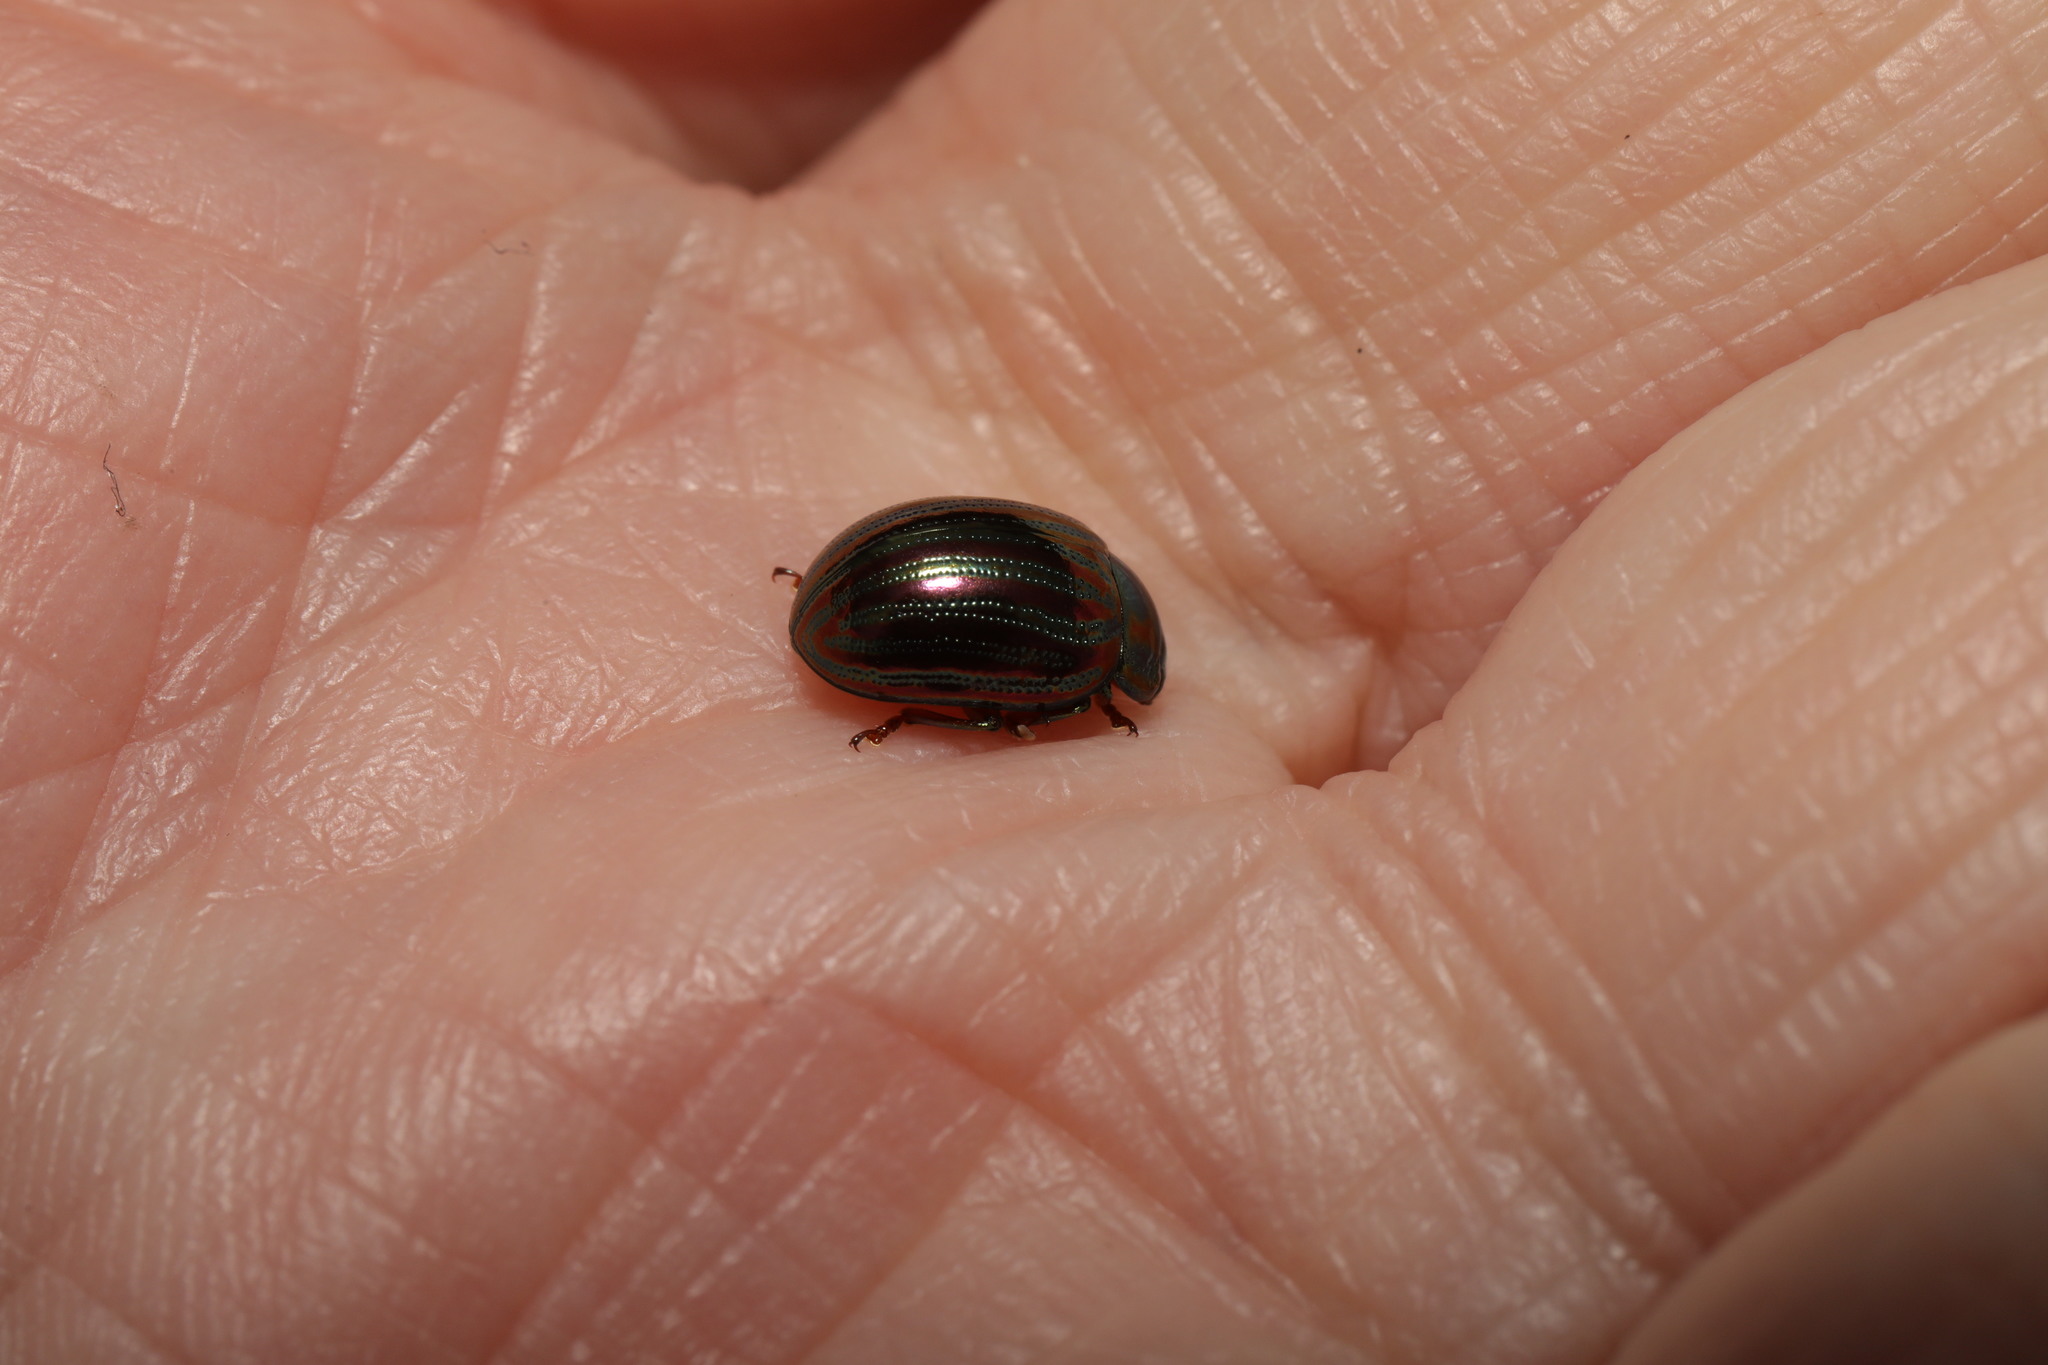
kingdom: Animalia
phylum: Arthropoda
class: Insecta
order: Coleoptera
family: Chrysomelidae
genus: Chrysolina
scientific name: Chrysolina americana
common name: Rosemary beetle
